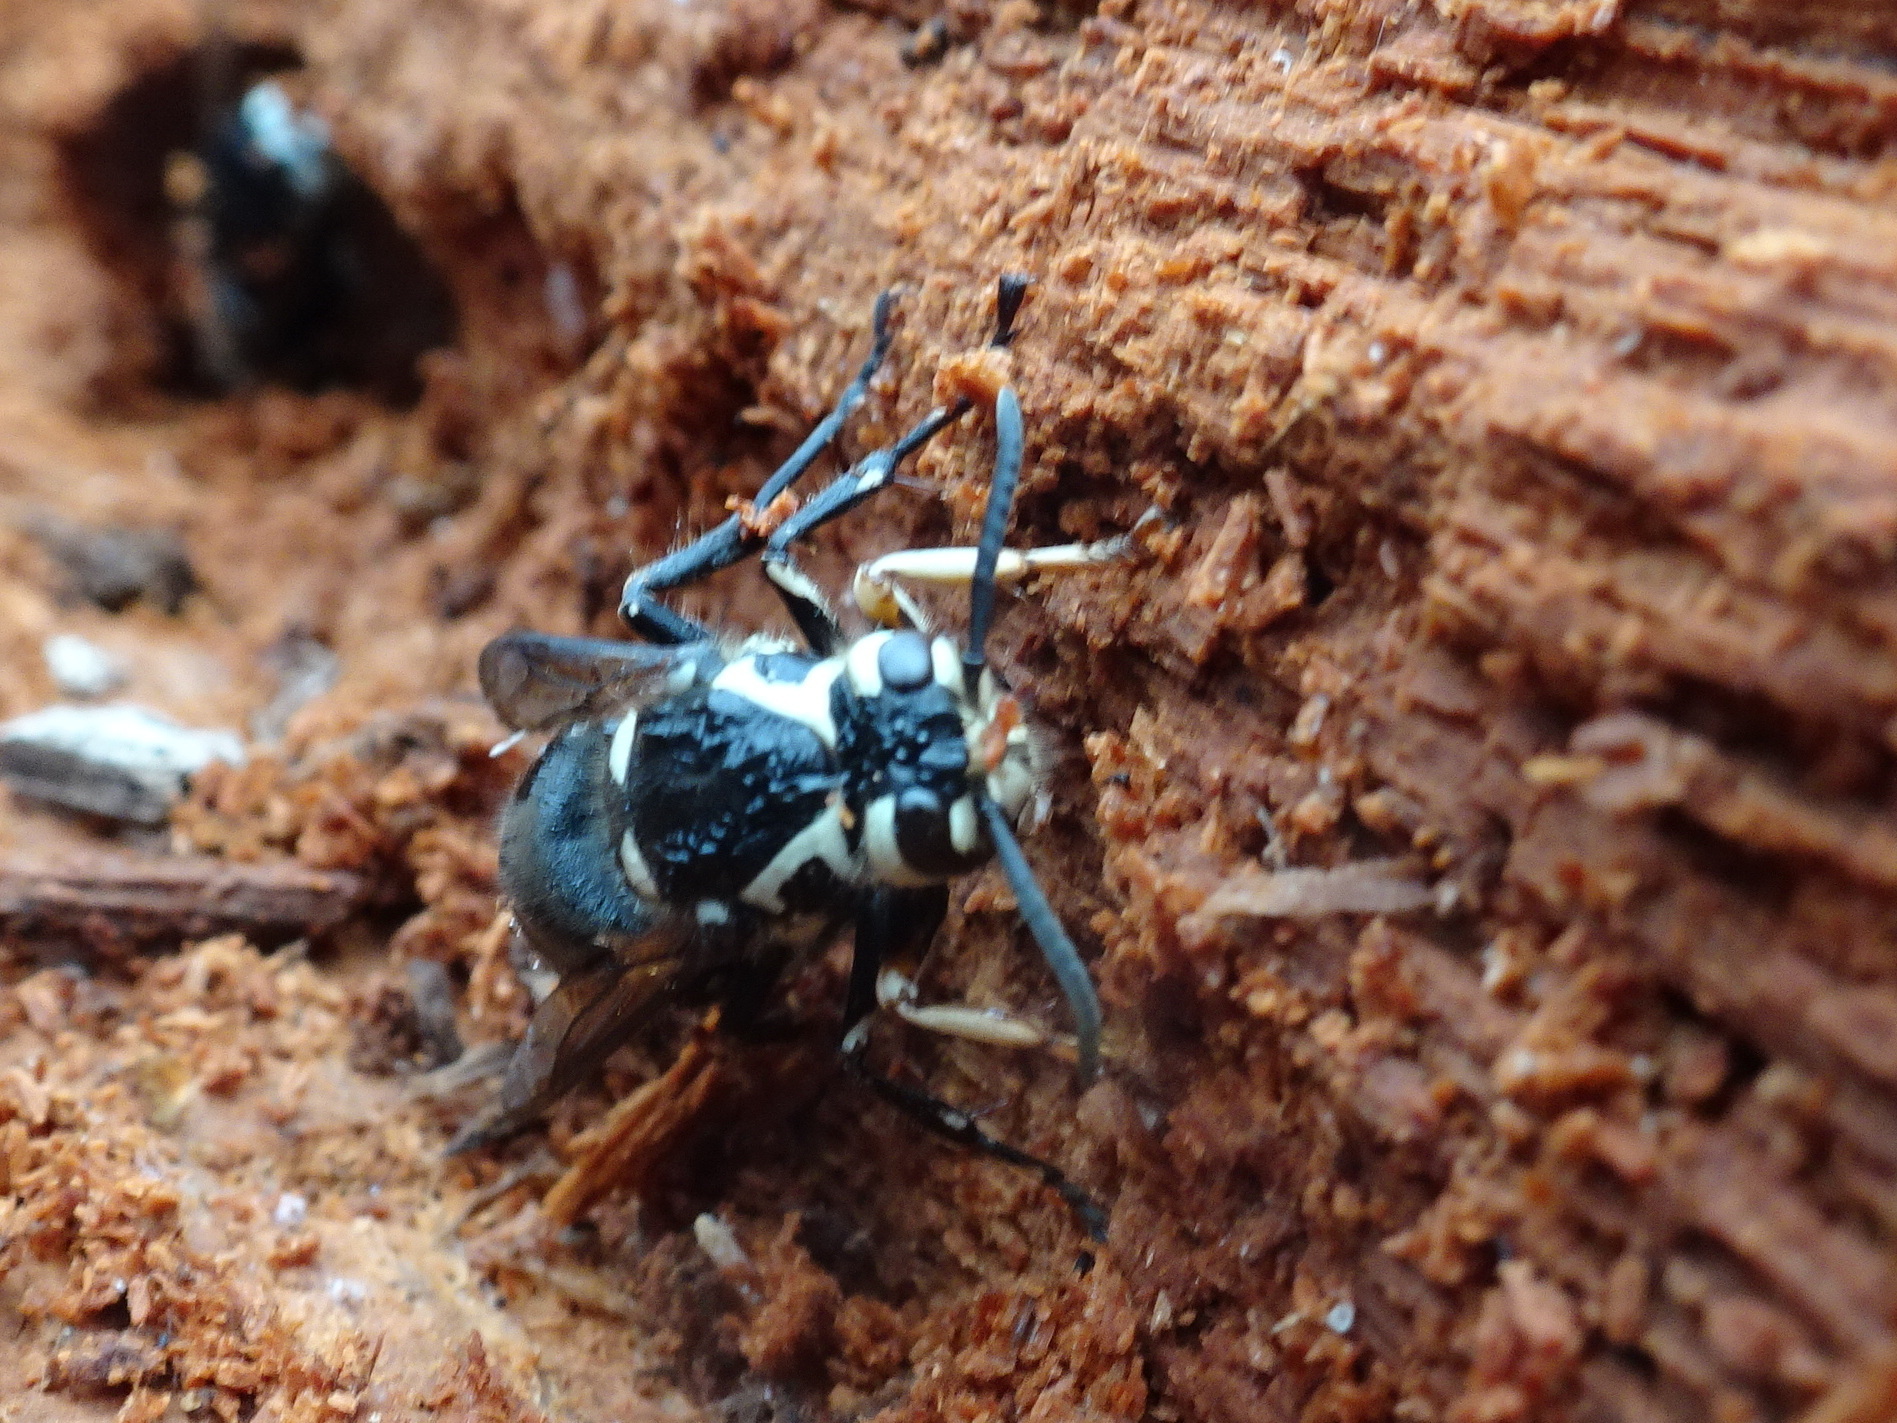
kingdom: Animalia
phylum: Arthropoda
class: Insecta
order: Hymenoptera
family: Vespidae
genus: Dolichovespula
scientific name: Dolichovespula maculata
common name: Bald-faced hornet
